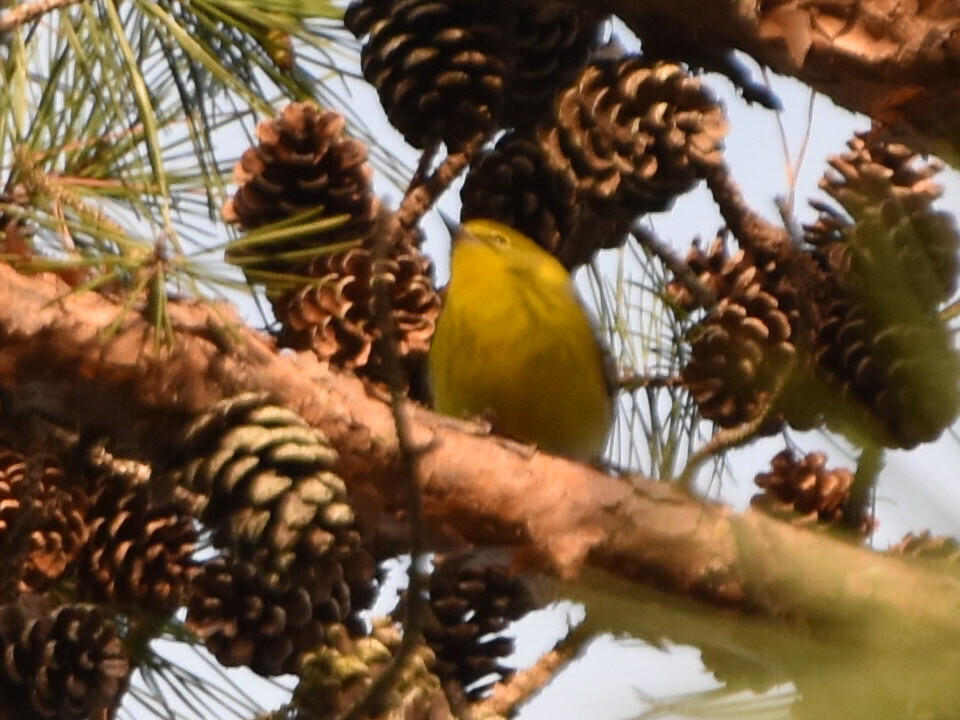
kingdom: Animalia
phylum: Chordata
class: Aves
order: Passeriformes
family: Parulidae
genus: Setophaga
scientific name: Setophaga pinus
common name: Pine warbler
